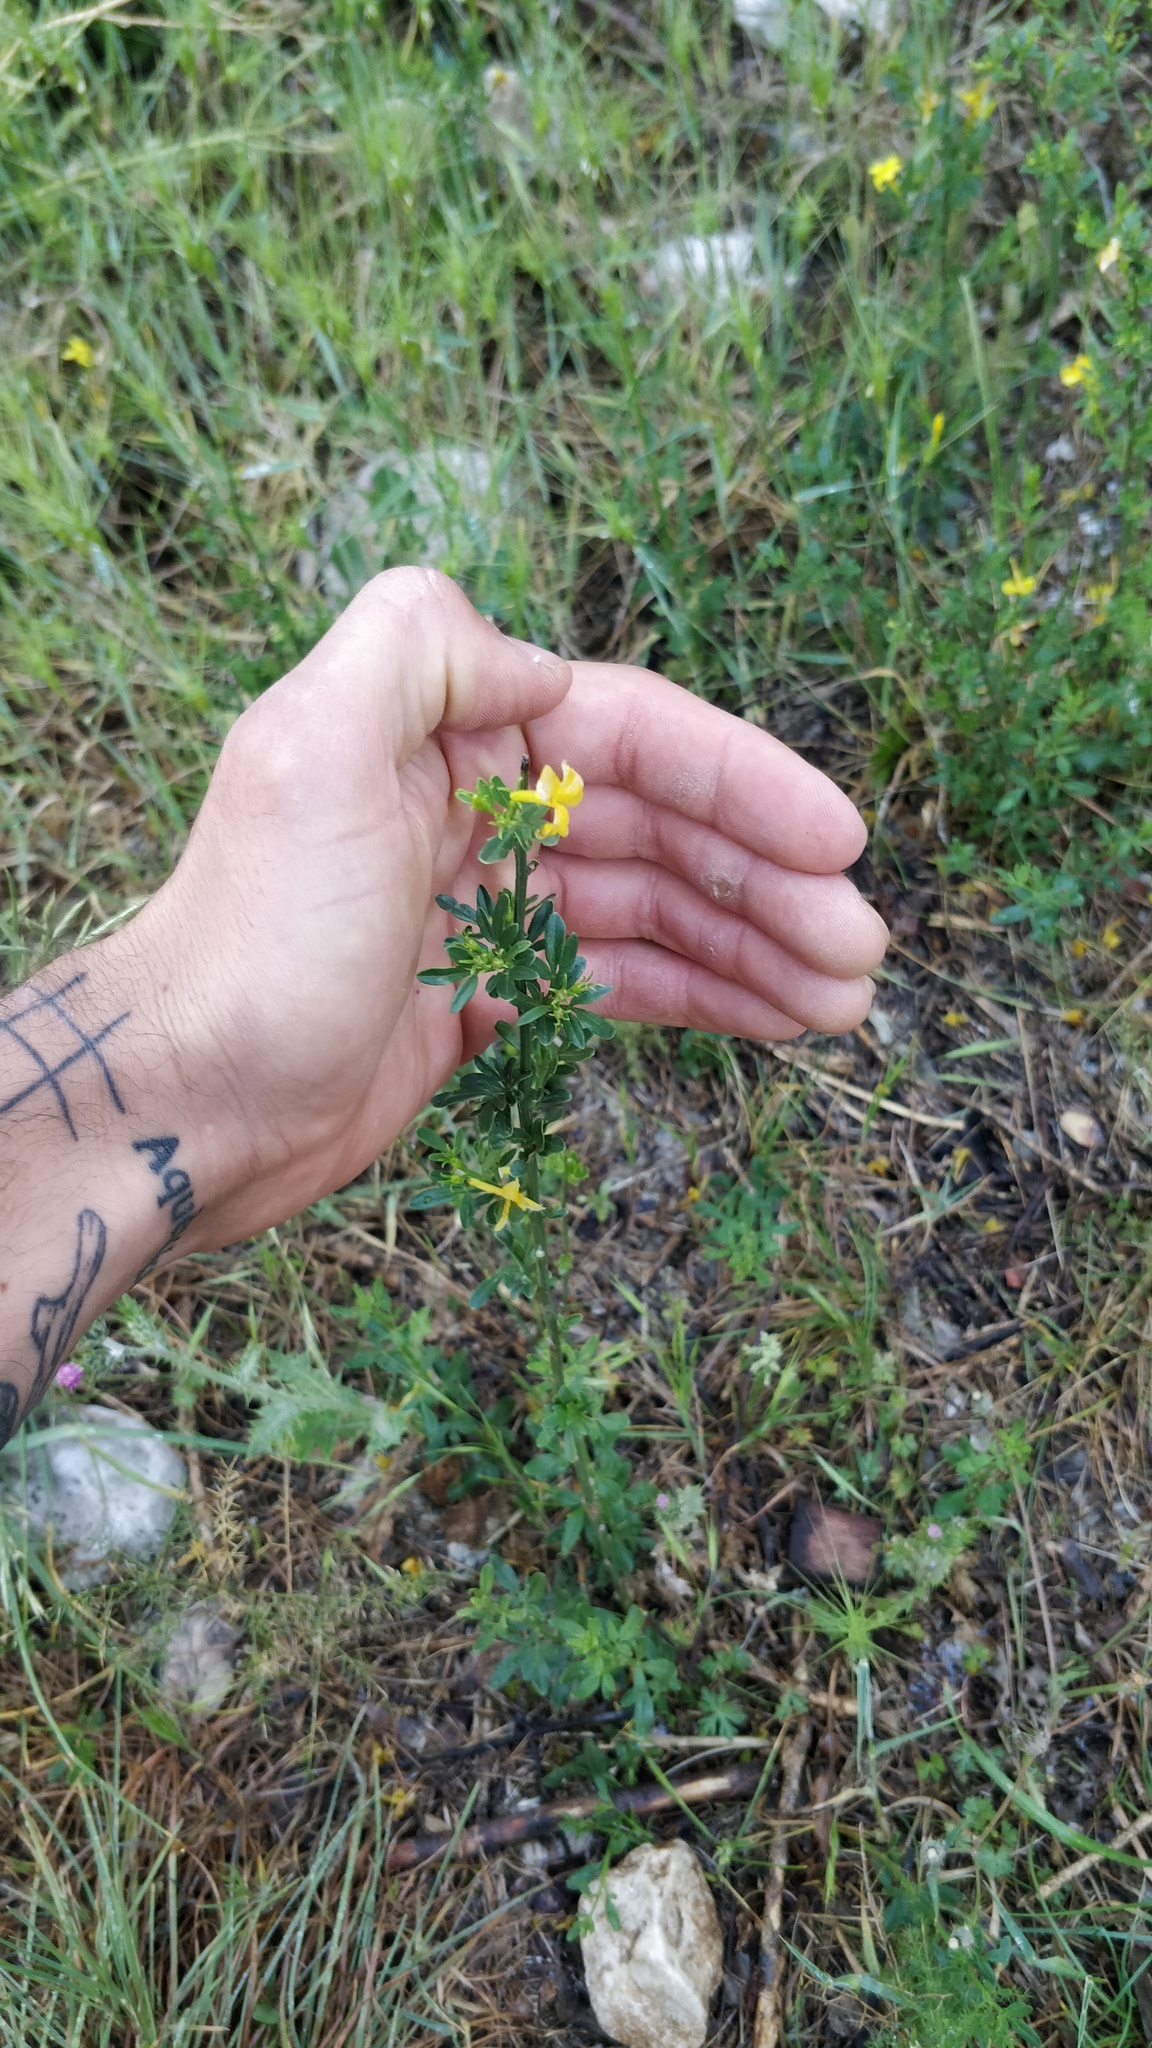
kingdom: Plantae
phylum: Tracheophyta
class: Magnoliopsida
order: Lamiales
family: Oleaceae
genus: Chrysojasminum
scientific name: Chrysojasminum fruticans
